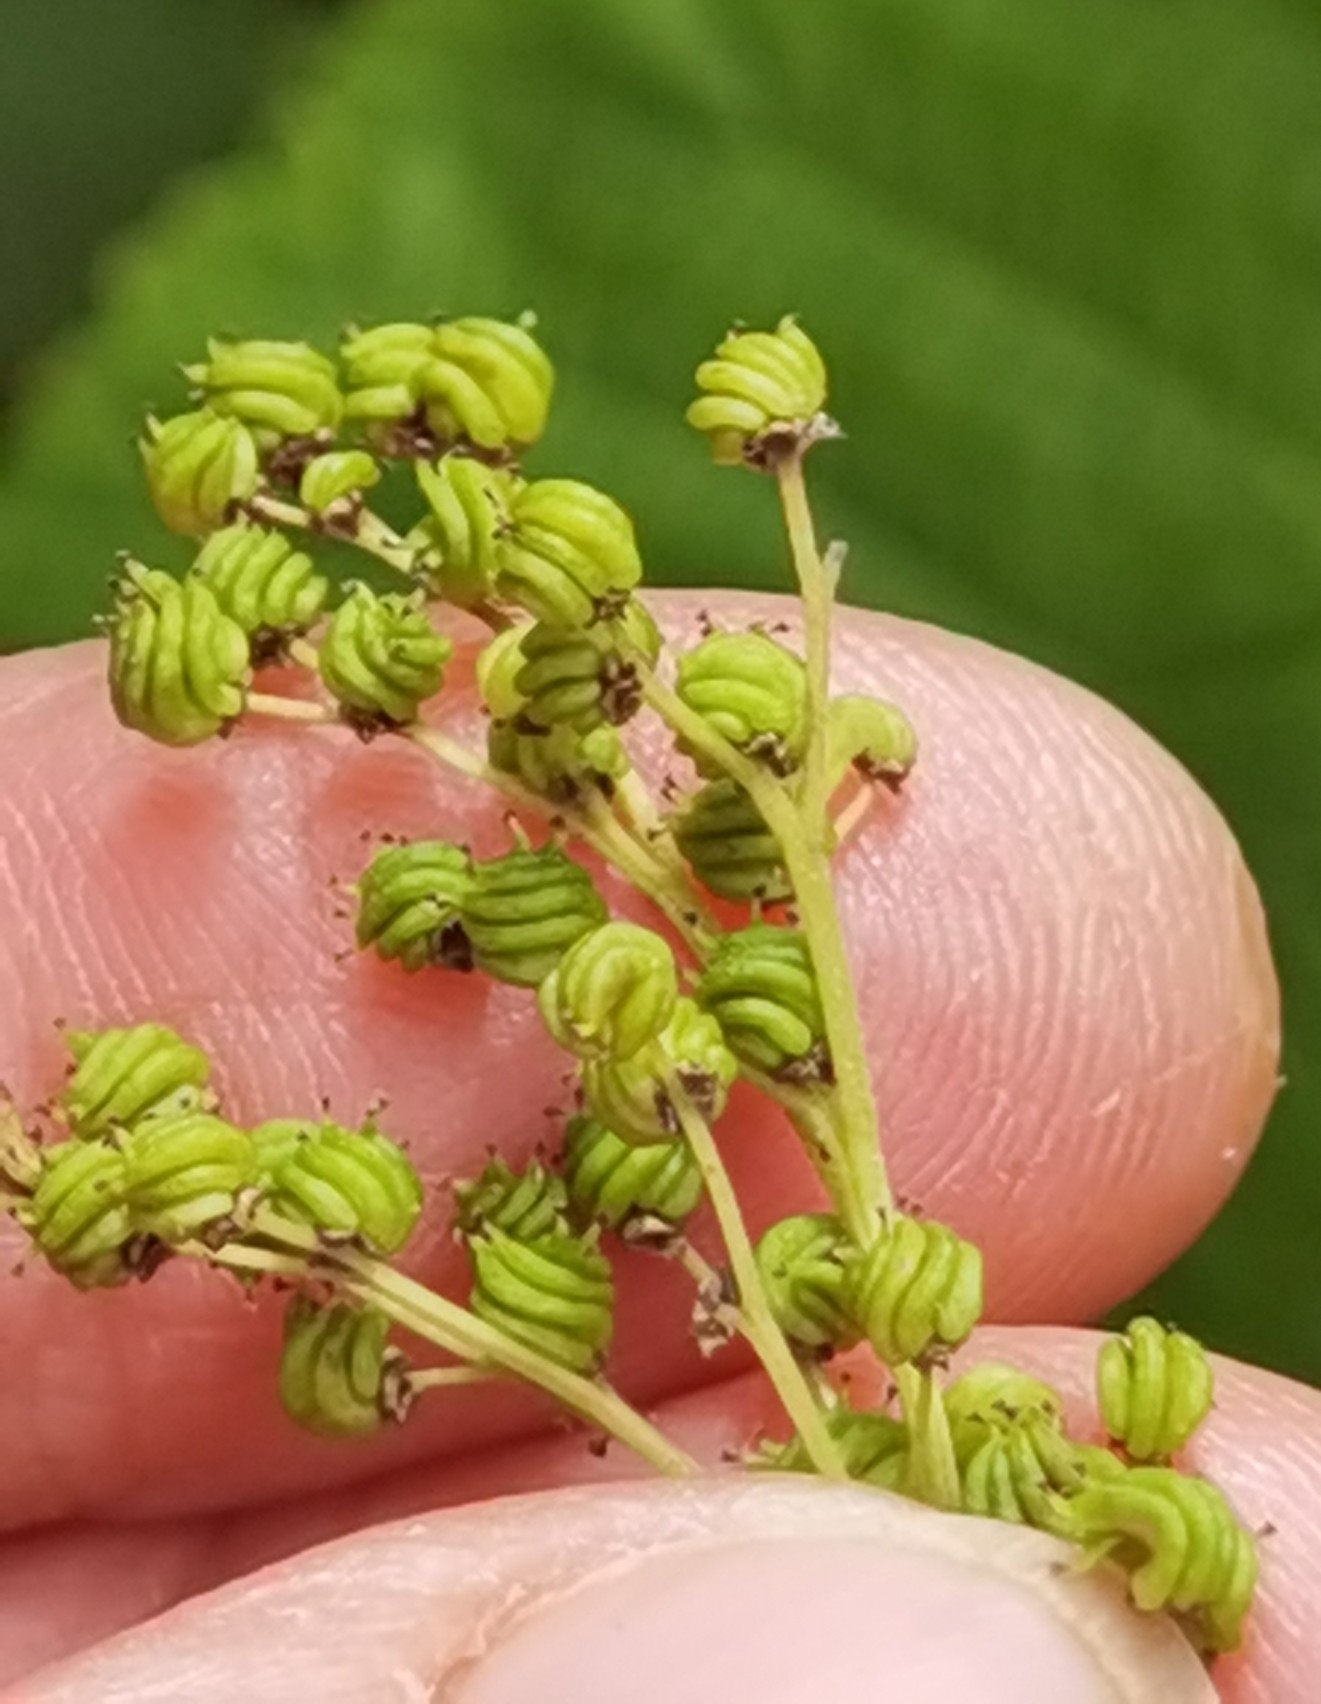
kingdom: Plantae
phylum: Tracheophyta
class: Magnoliopsida
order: Rosales
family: Rosaceae
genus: Filipendula
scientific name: Filipendula ulmaria
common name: Meadowsweet
